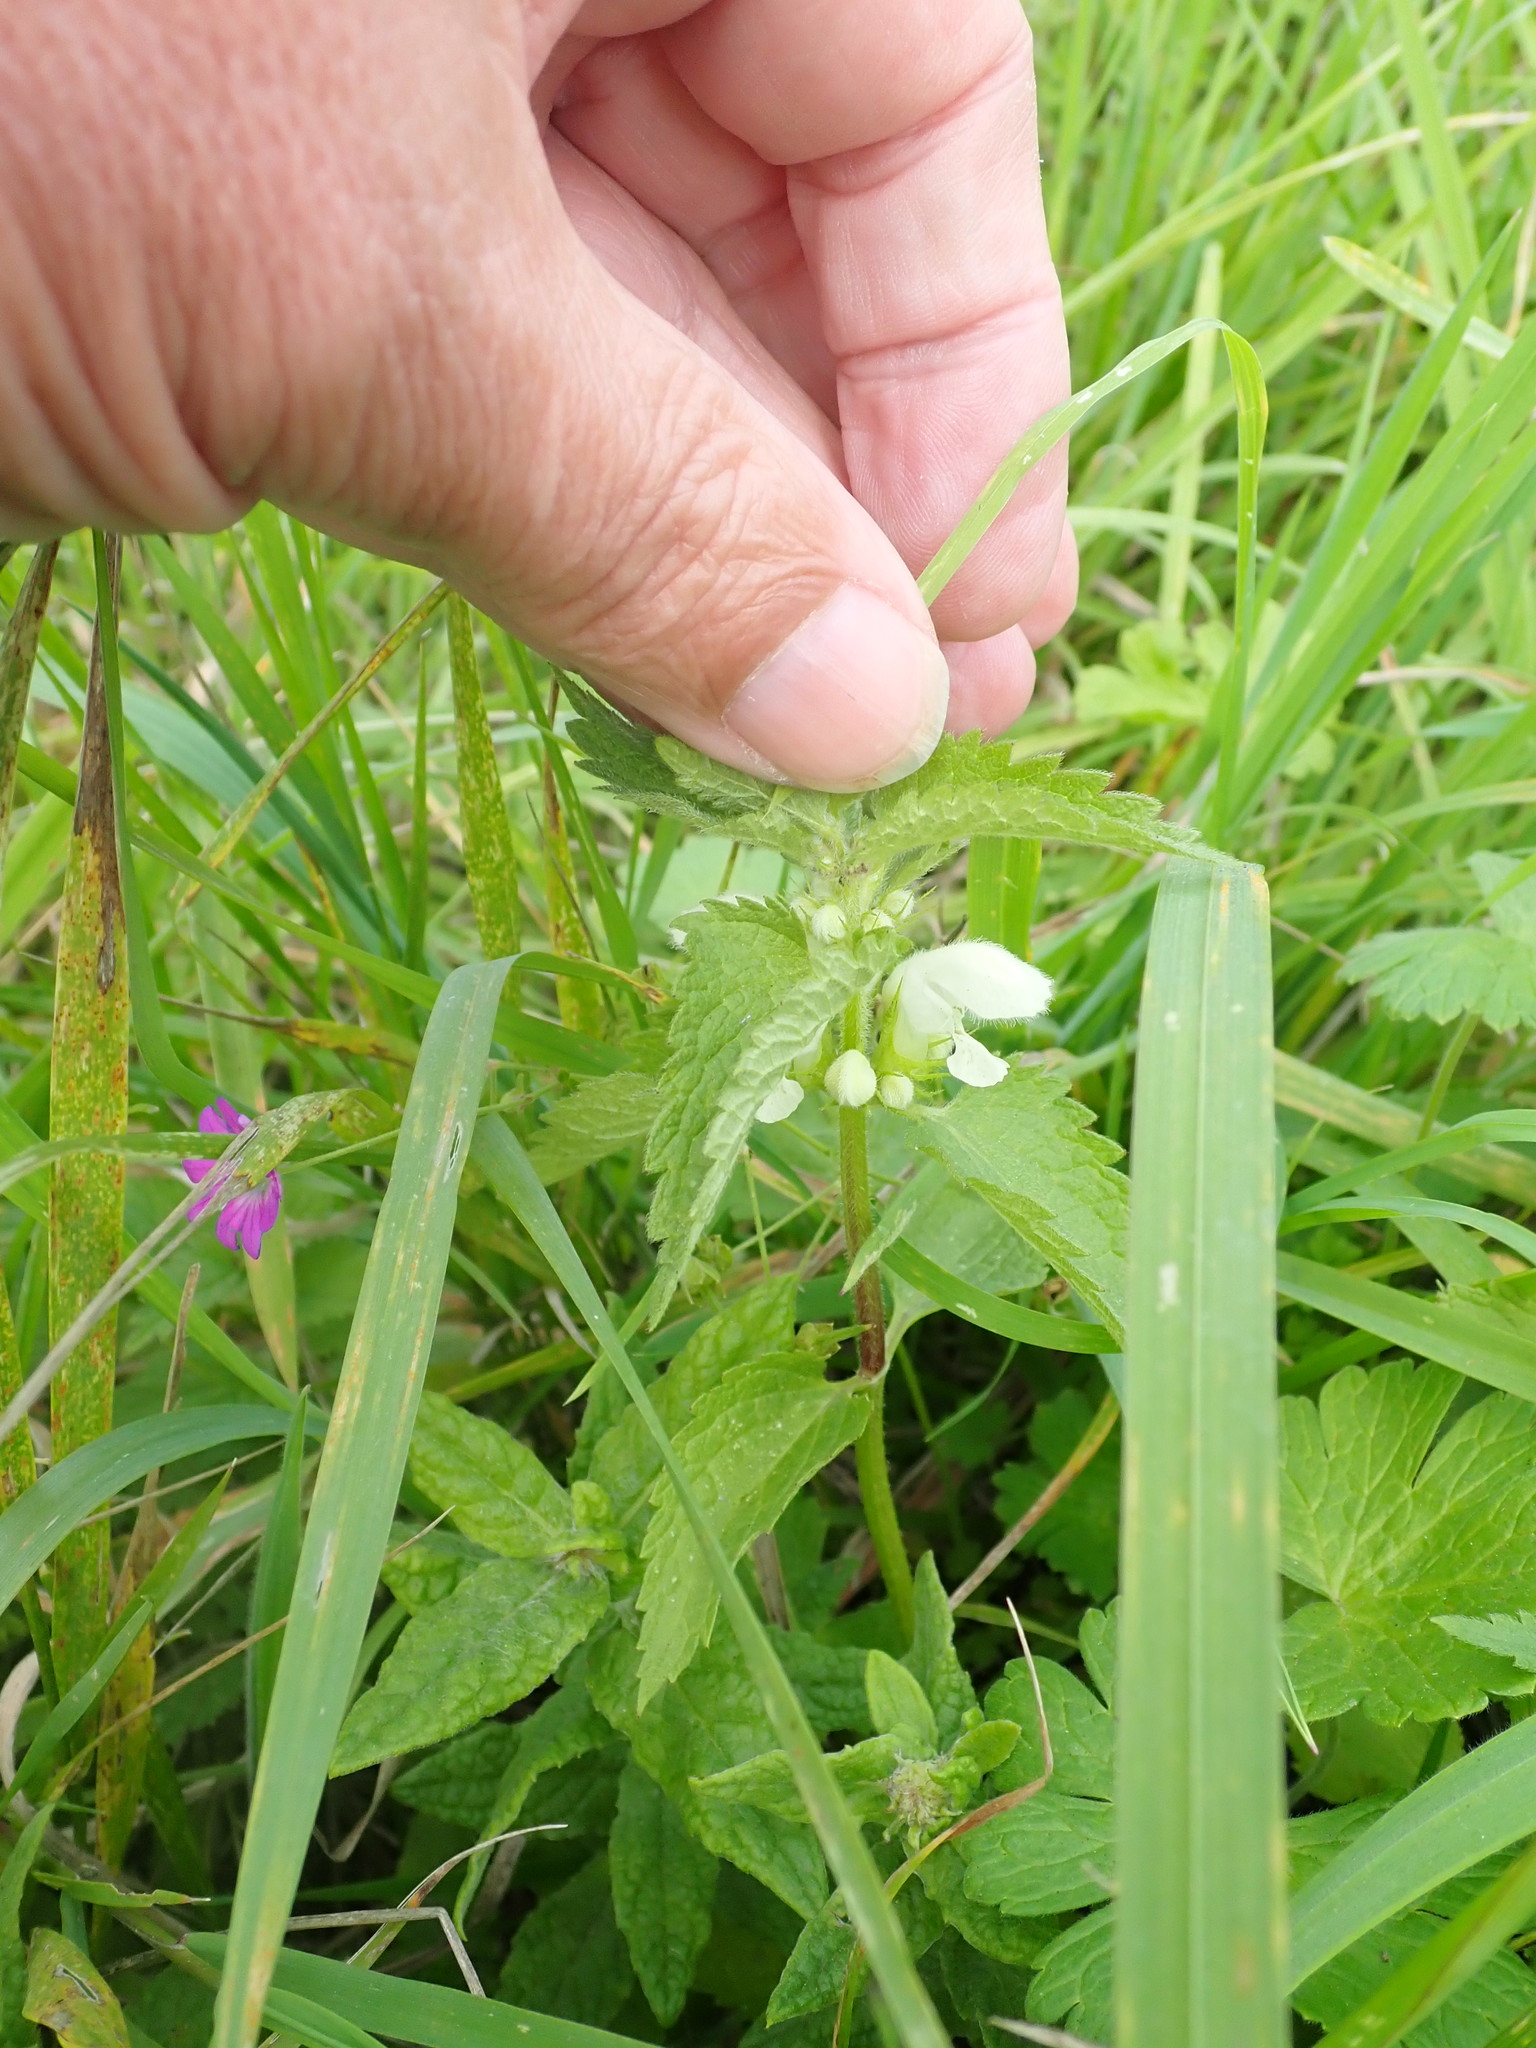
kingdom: Plantae
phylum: Tracheophyta
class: Magnoliopsida
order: Lamiales
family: Lamiaceae
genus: Lamium
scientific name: Lamium album
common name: White dead-nettle
